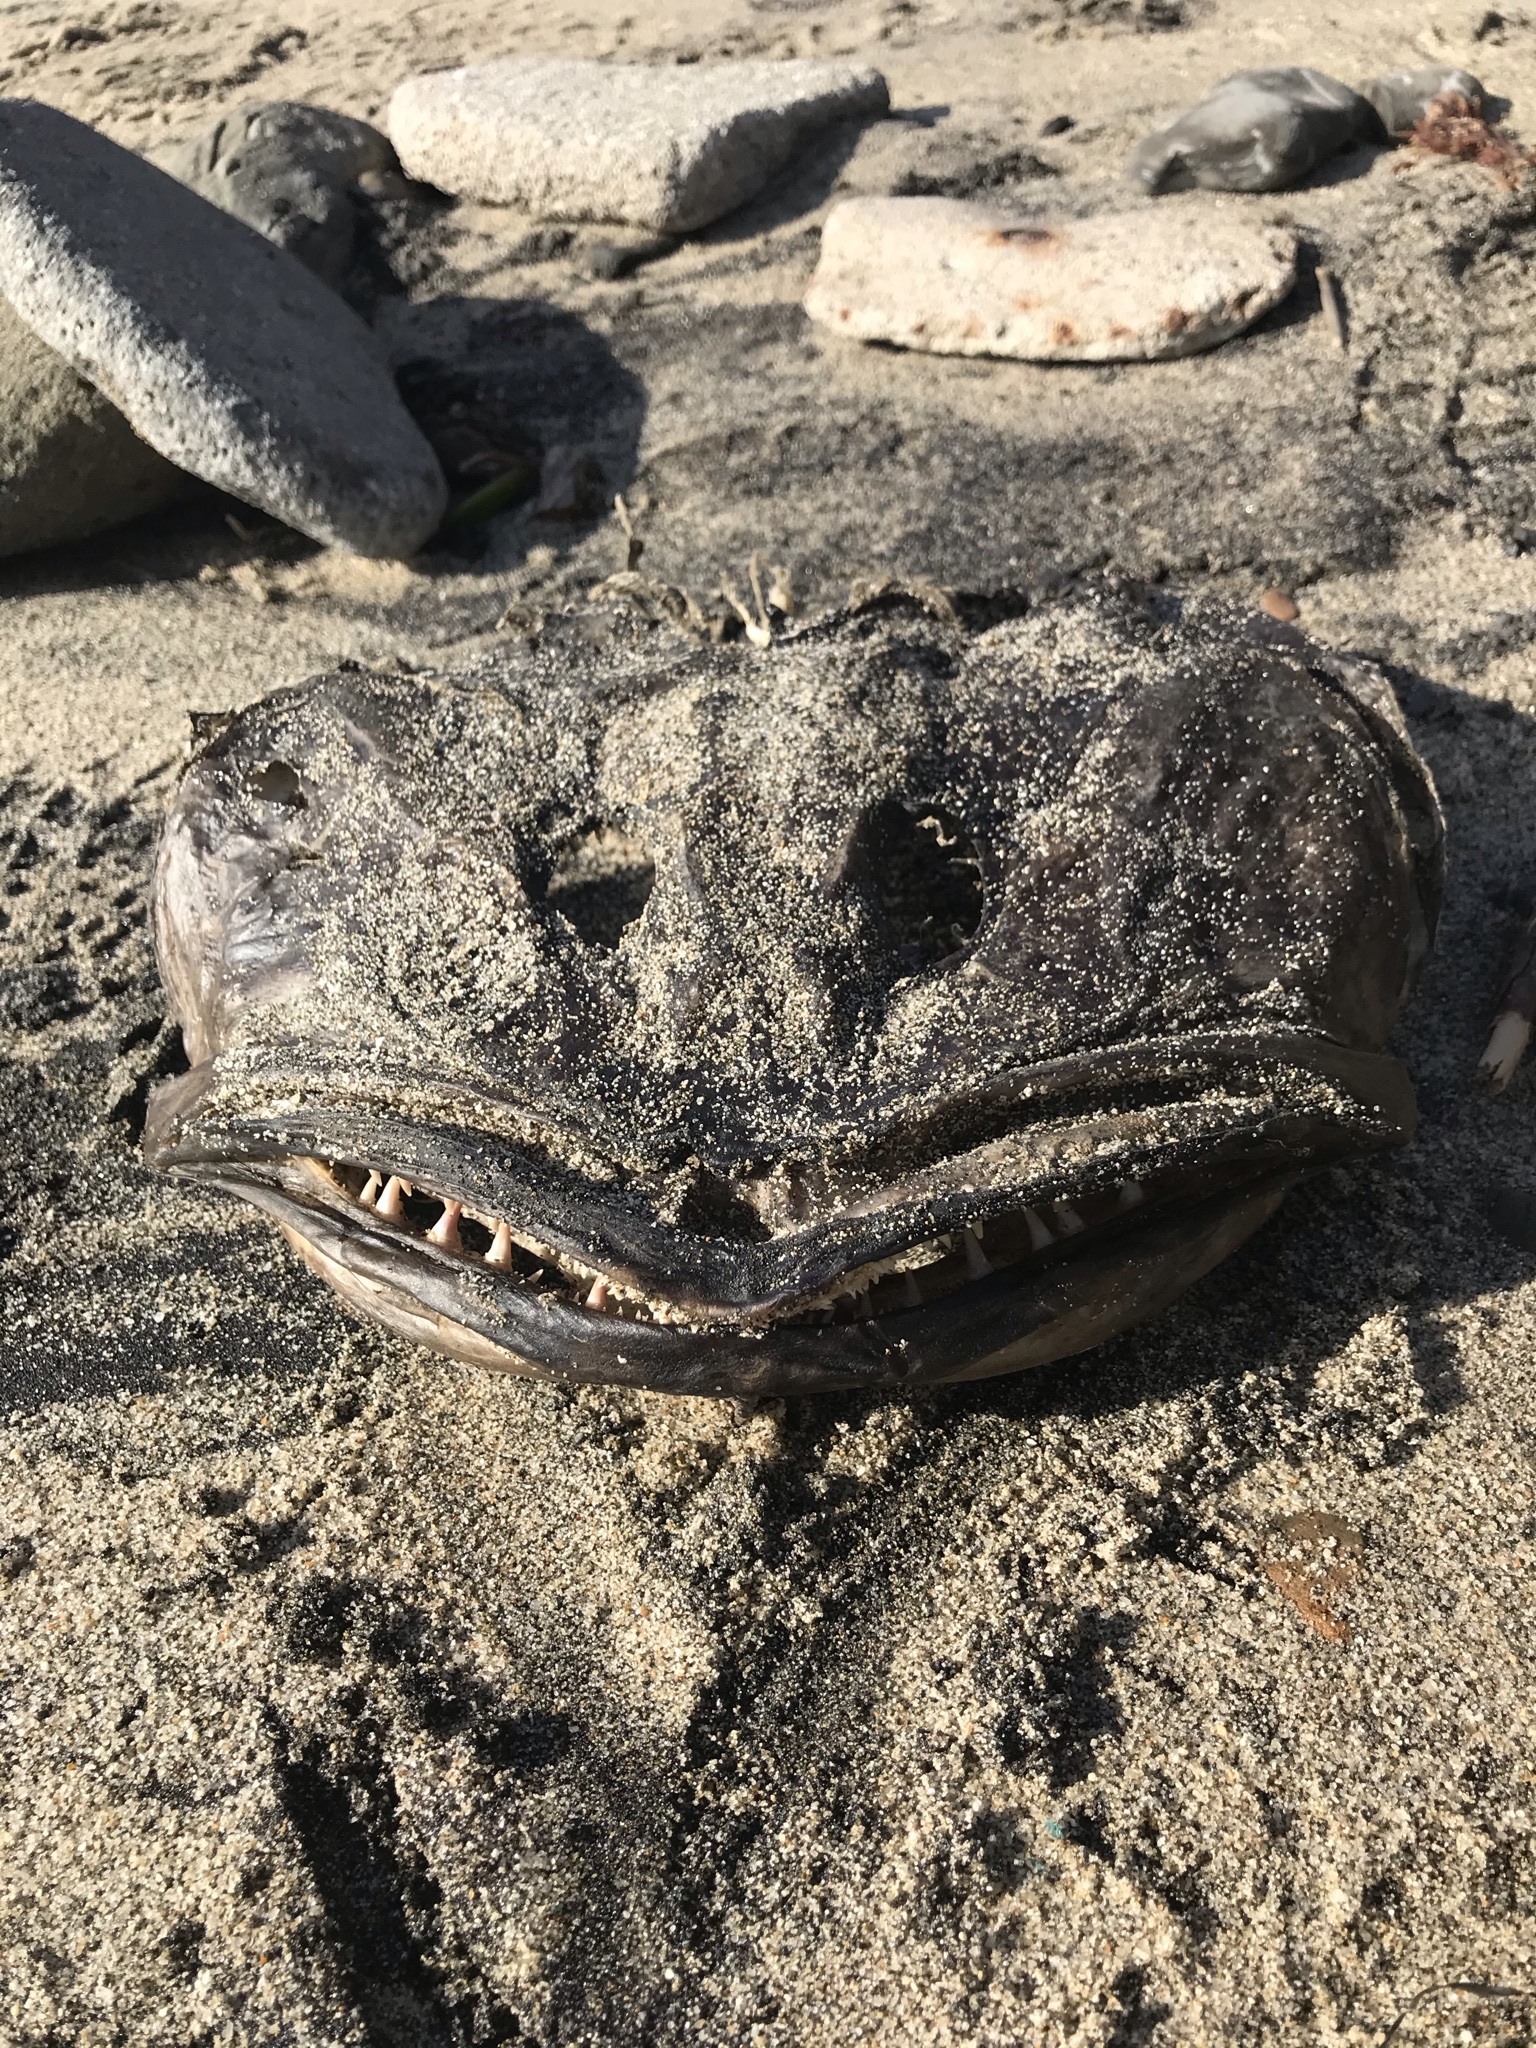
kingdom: Animalia
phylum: Chordata
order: Scorpaeniformes
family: Hexagrammidae
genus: Ophiodon
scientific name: Ophiodon elongatus
